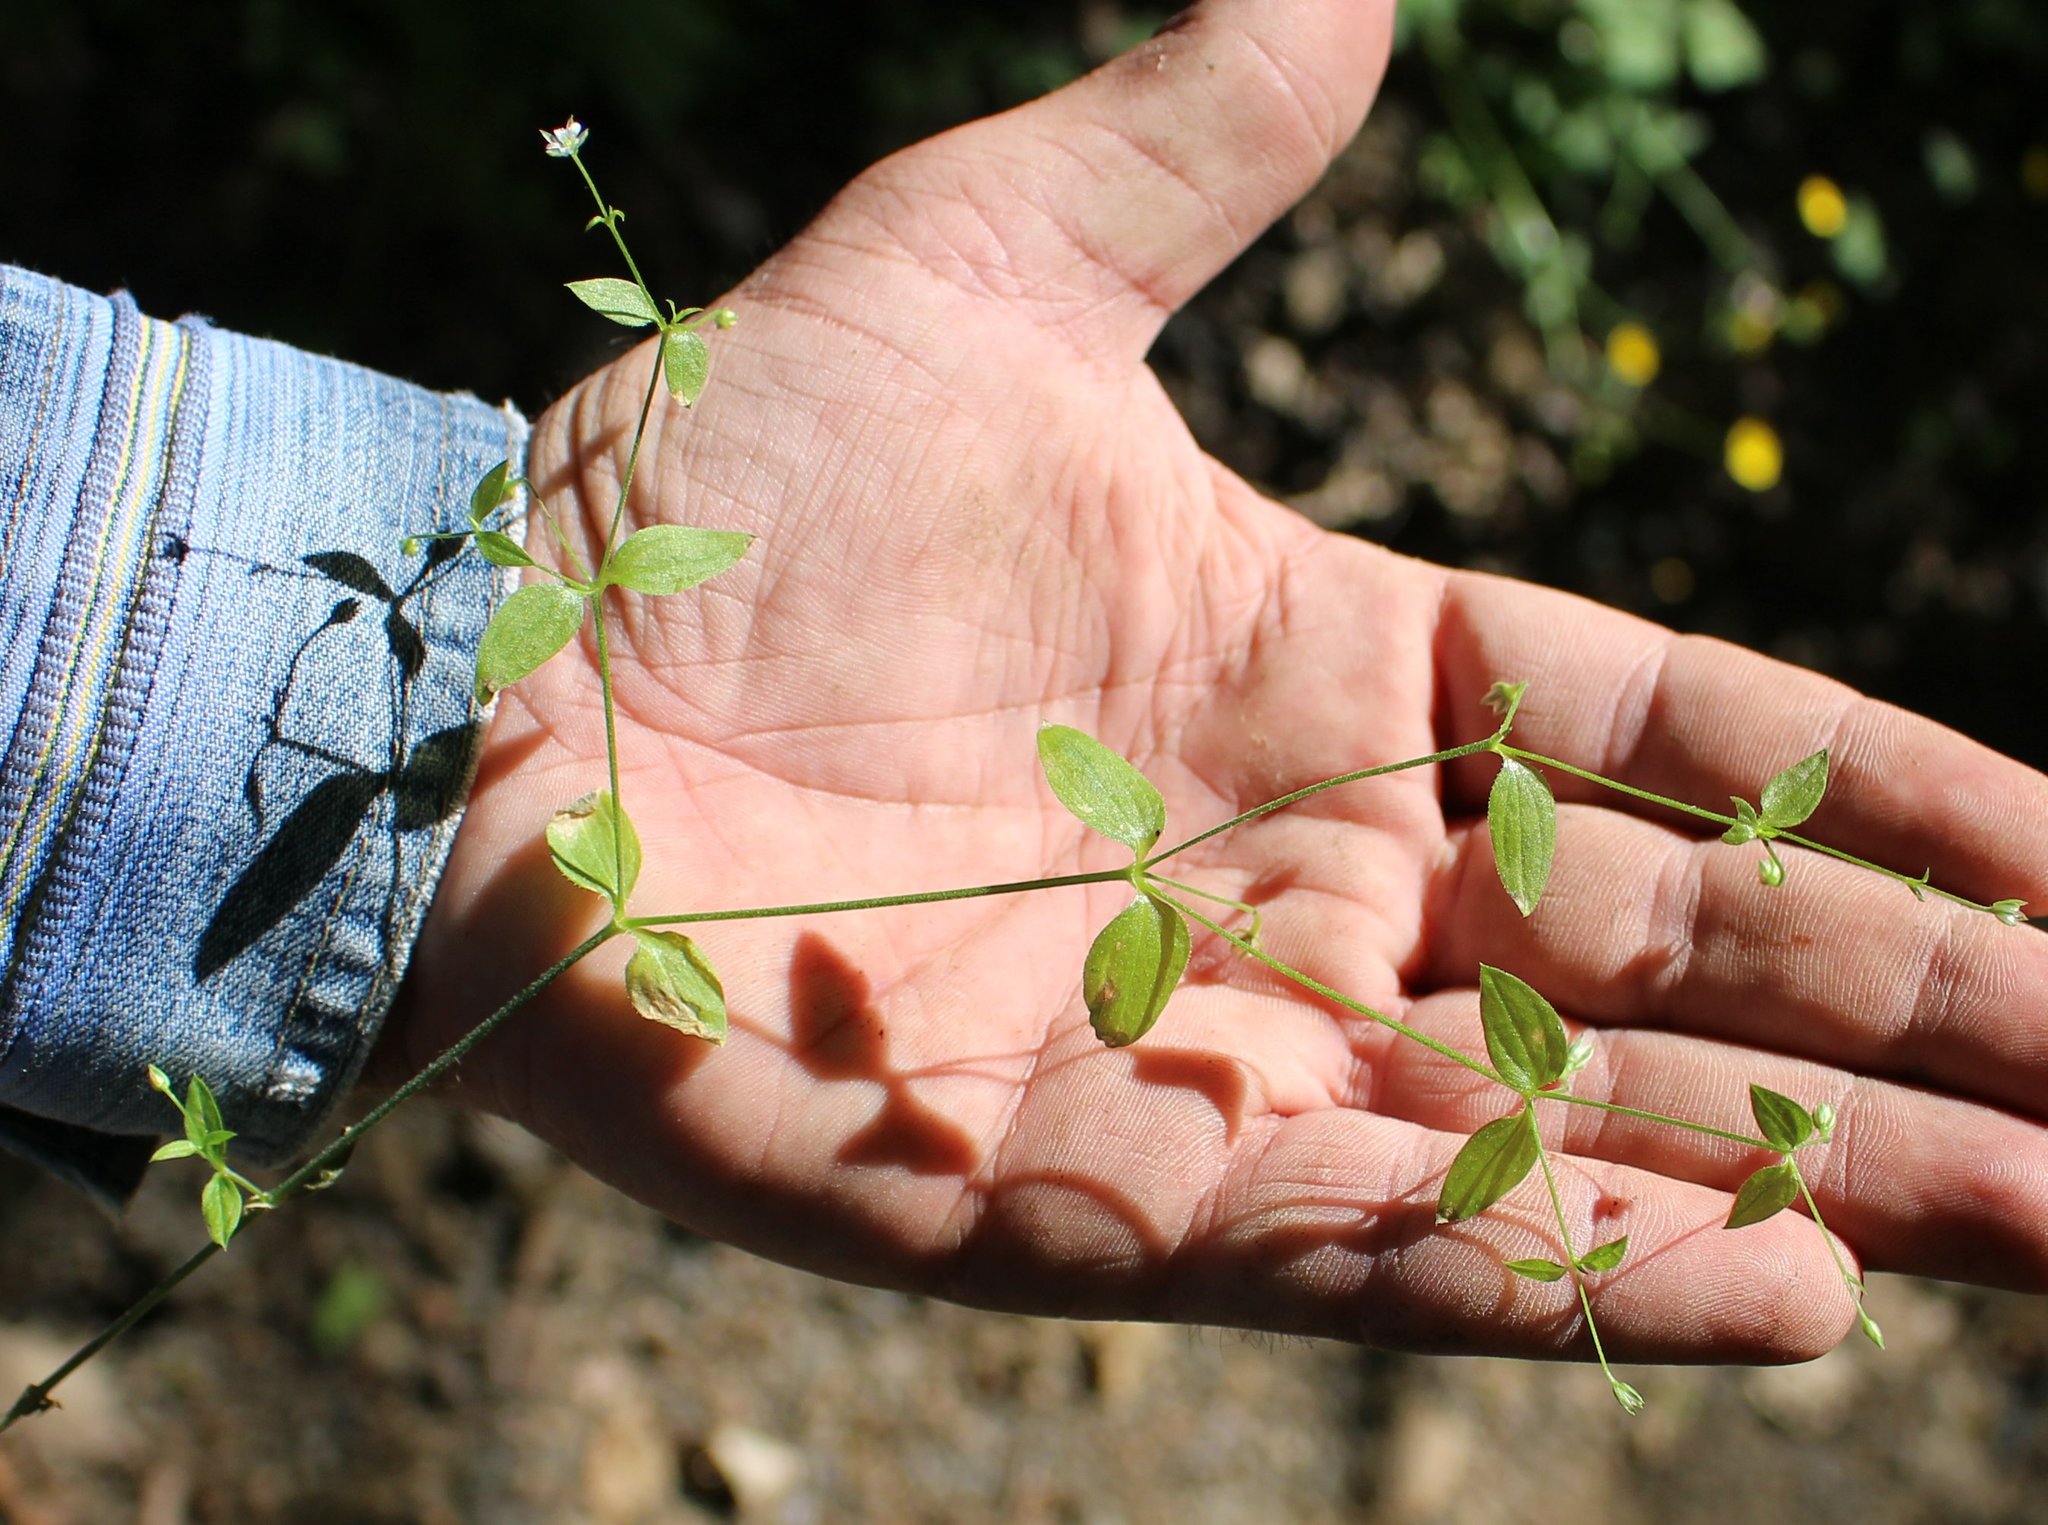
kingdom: Plantae
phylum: Tracheophyta
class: Magnoliopsida
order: Caryophyllales
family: Caryophyllaceae
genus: Moehringia
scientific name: Moehringia trinervia
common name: Three-nerved sandwort
